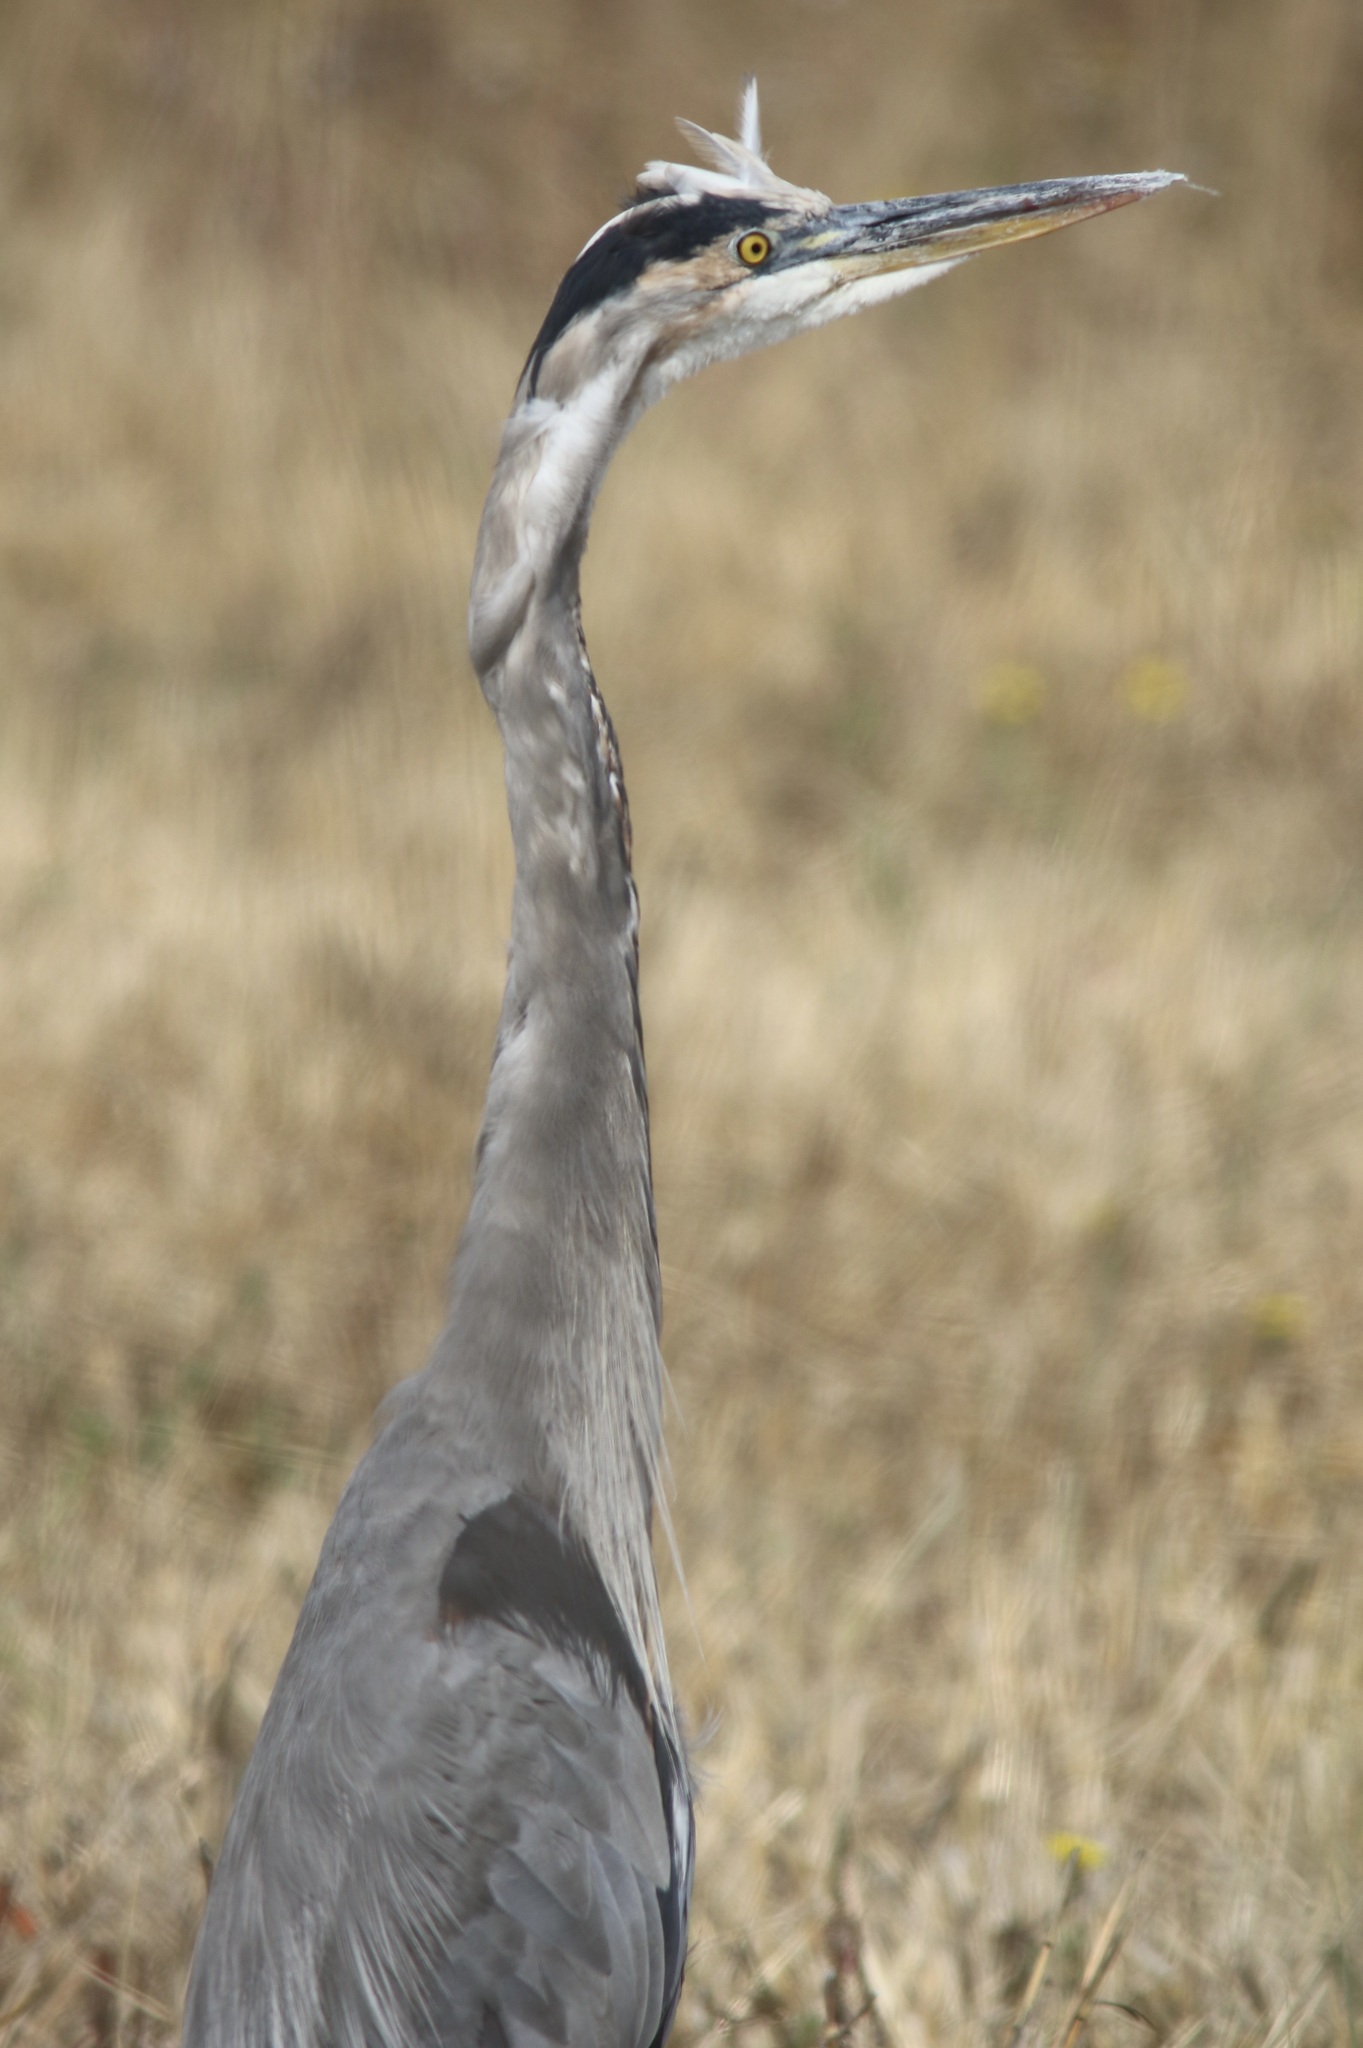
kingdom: Animalia
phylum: Chordata
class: Aves
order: Pelecaniformes
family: Ardeidae
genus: Ardea
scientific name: Ardea herodias
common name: Great blue heron
